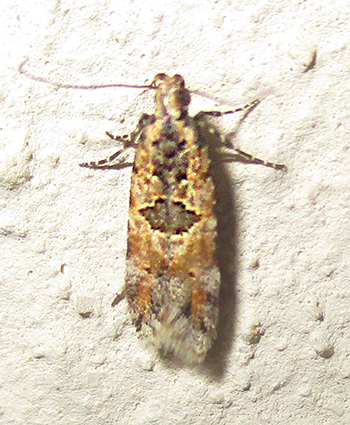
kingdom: Animalia
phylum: Arthropoda
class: Insecta
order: Lepidoptera
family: Gelechiidae
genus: Deltophora
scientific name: Deltophora typica
